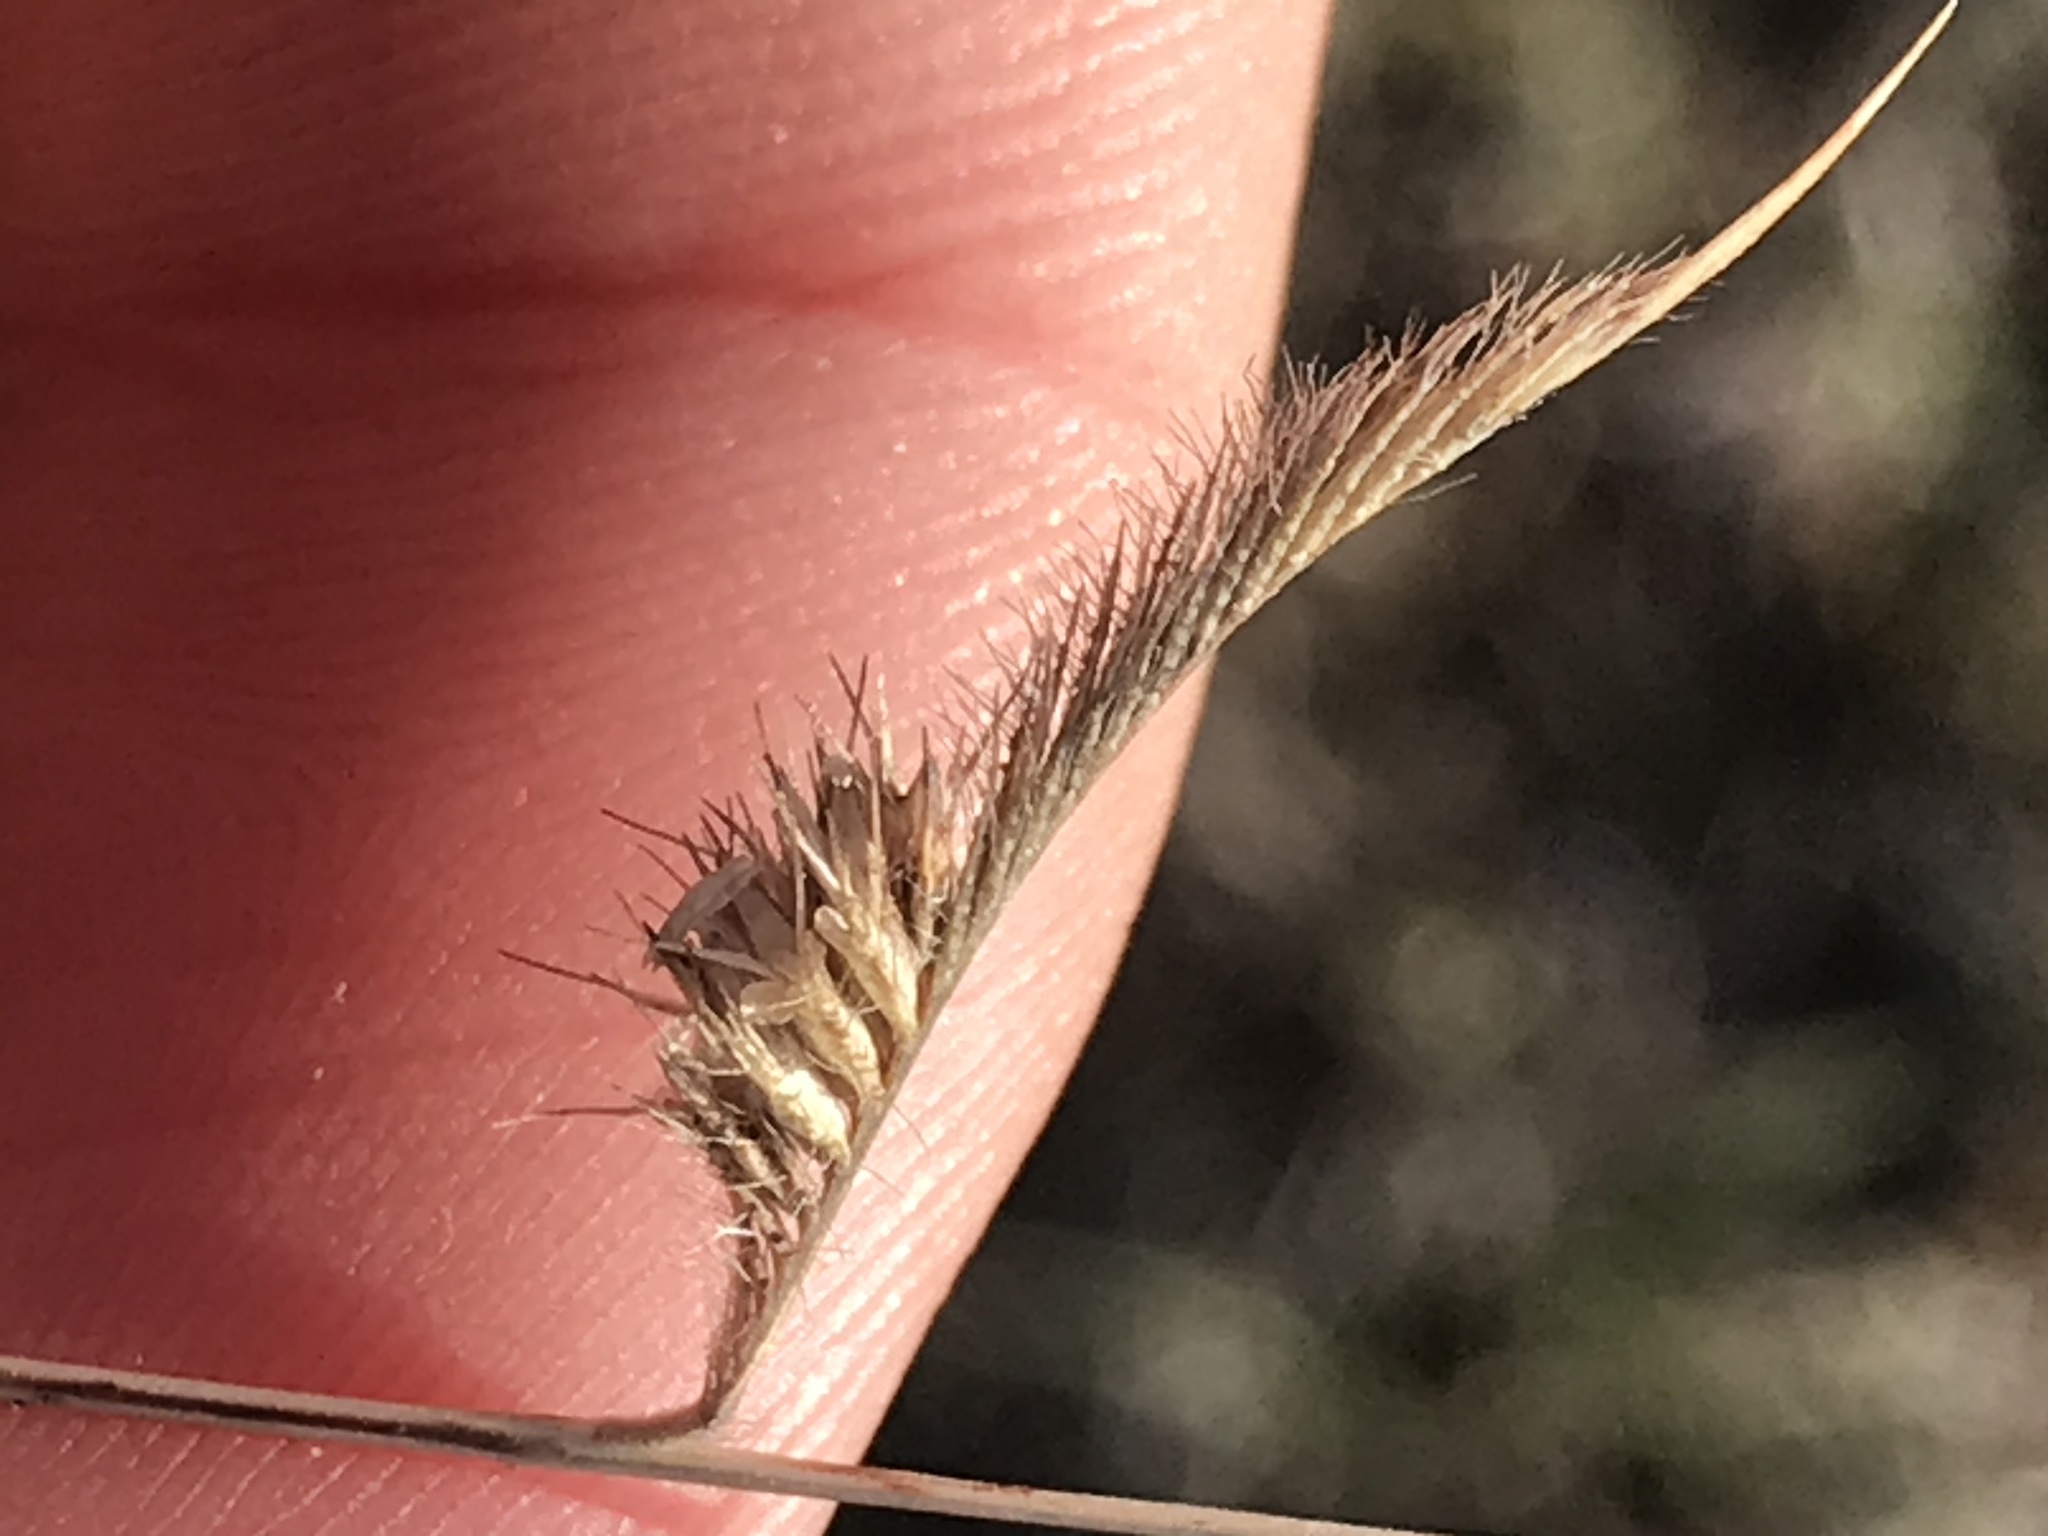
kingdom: Plantae
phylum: Tracheophyta
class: Liliopsida
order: Poales
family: Poaceae
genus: Bouteloua
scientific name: Bouteloua hirsuta
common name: Hairy grama
